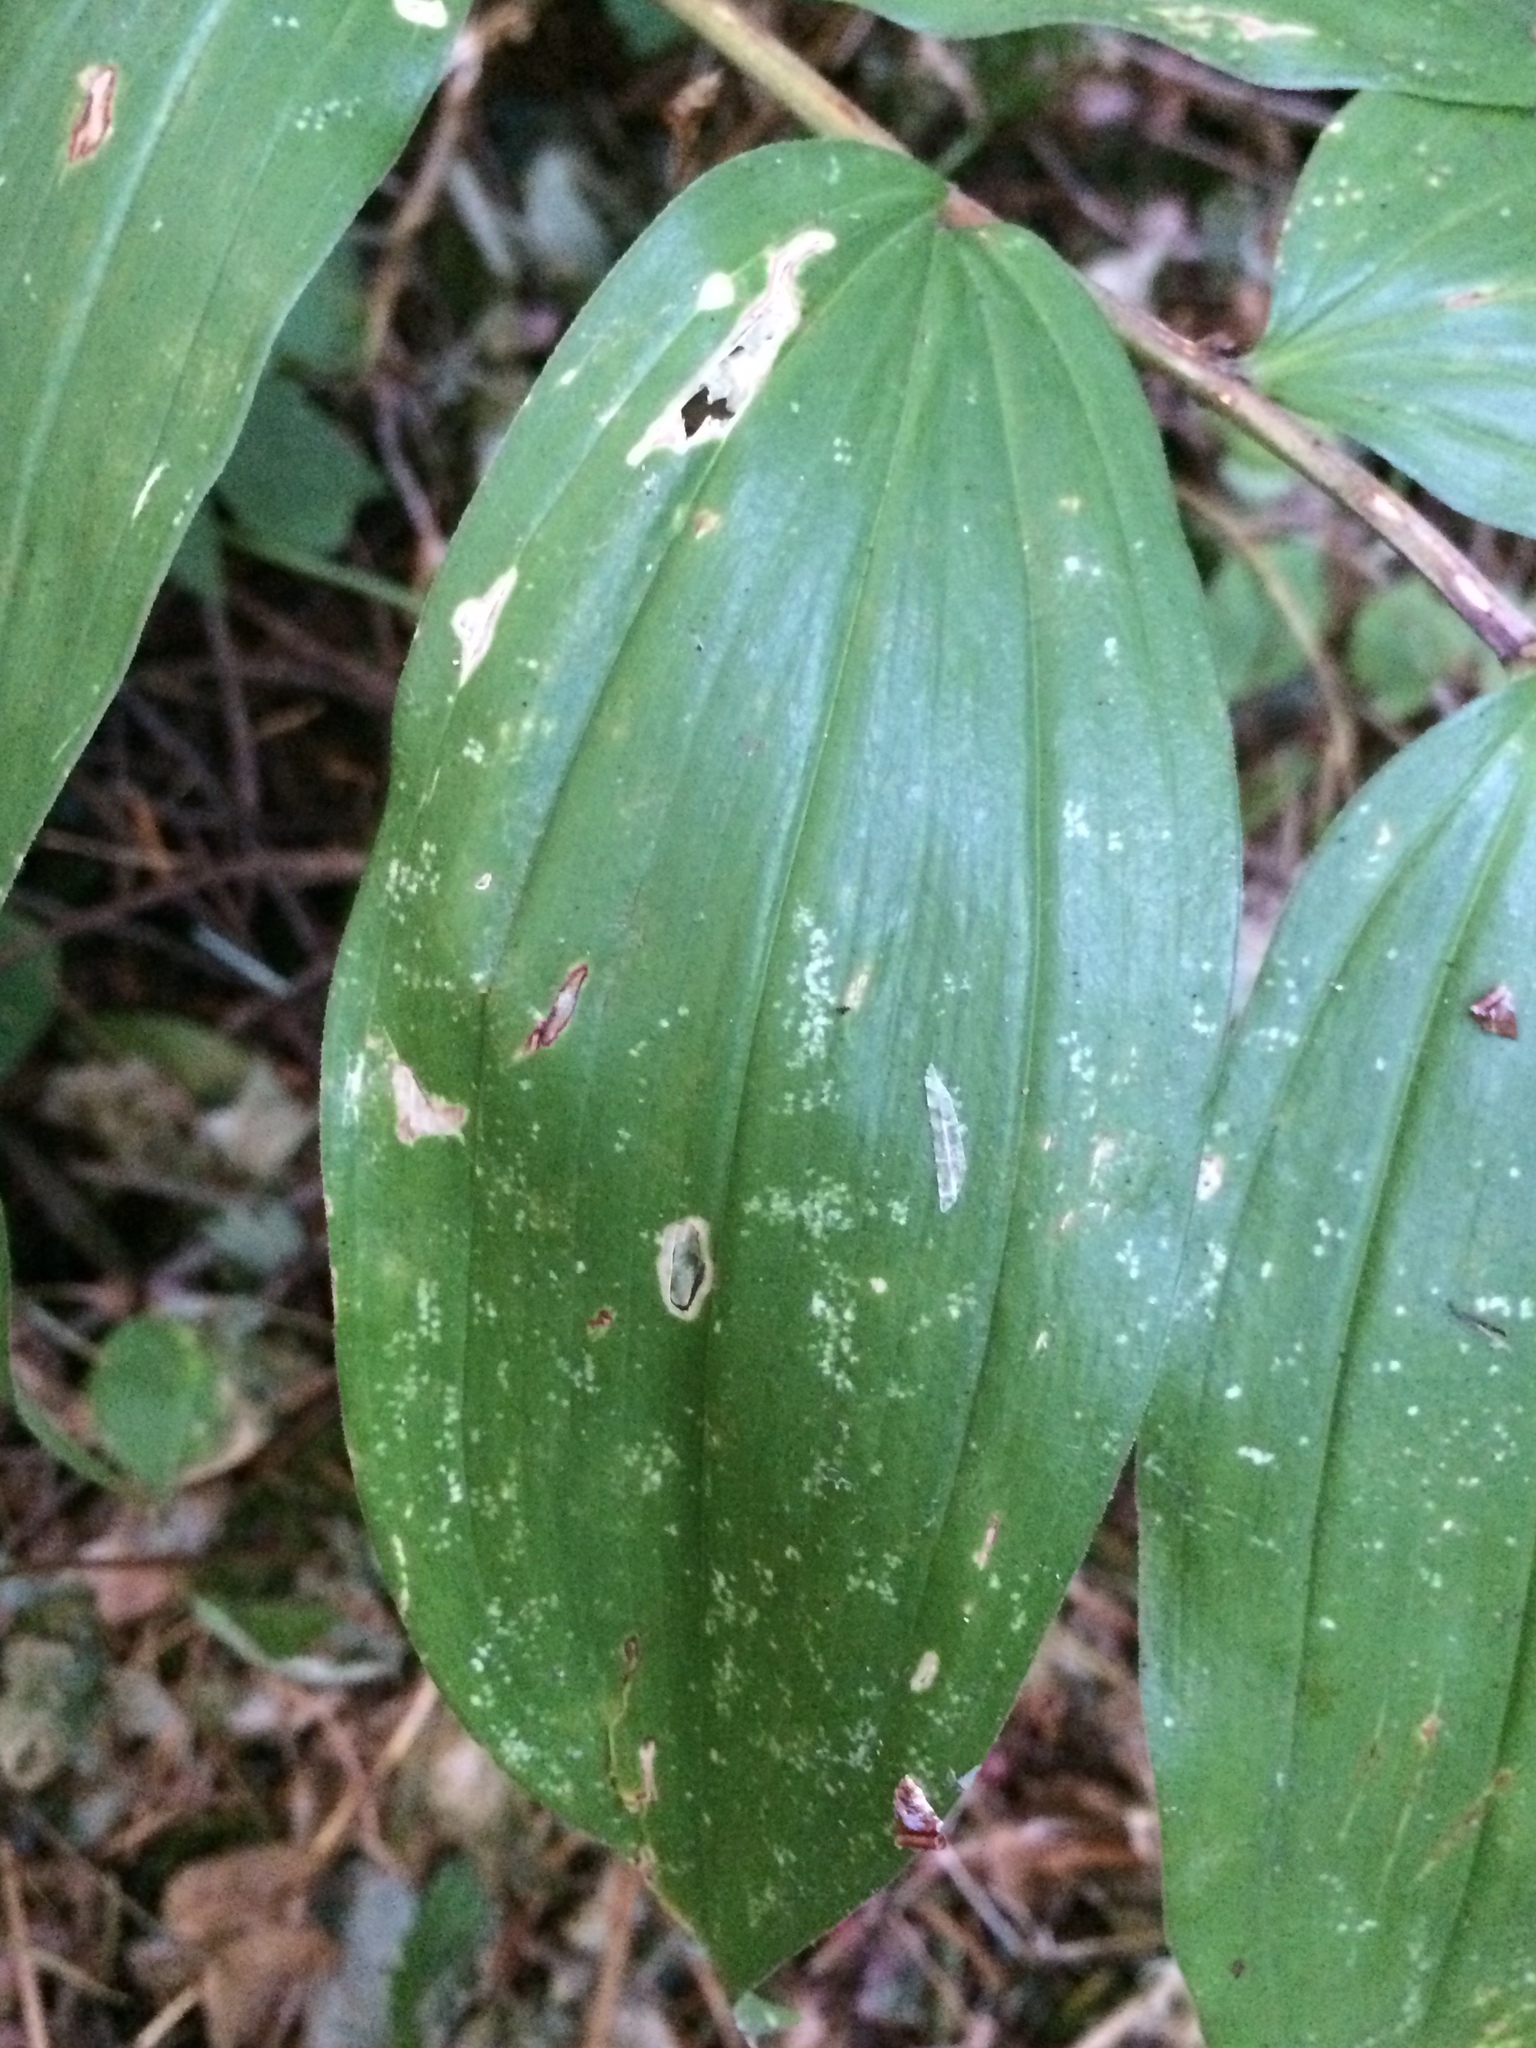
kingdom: Plantae
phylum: Tracheophyta
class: Liliopsida
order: Asparagales
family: Asparagaceae
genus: Maianthemum
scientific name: Maianthemum racemosum
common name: False spikenard
